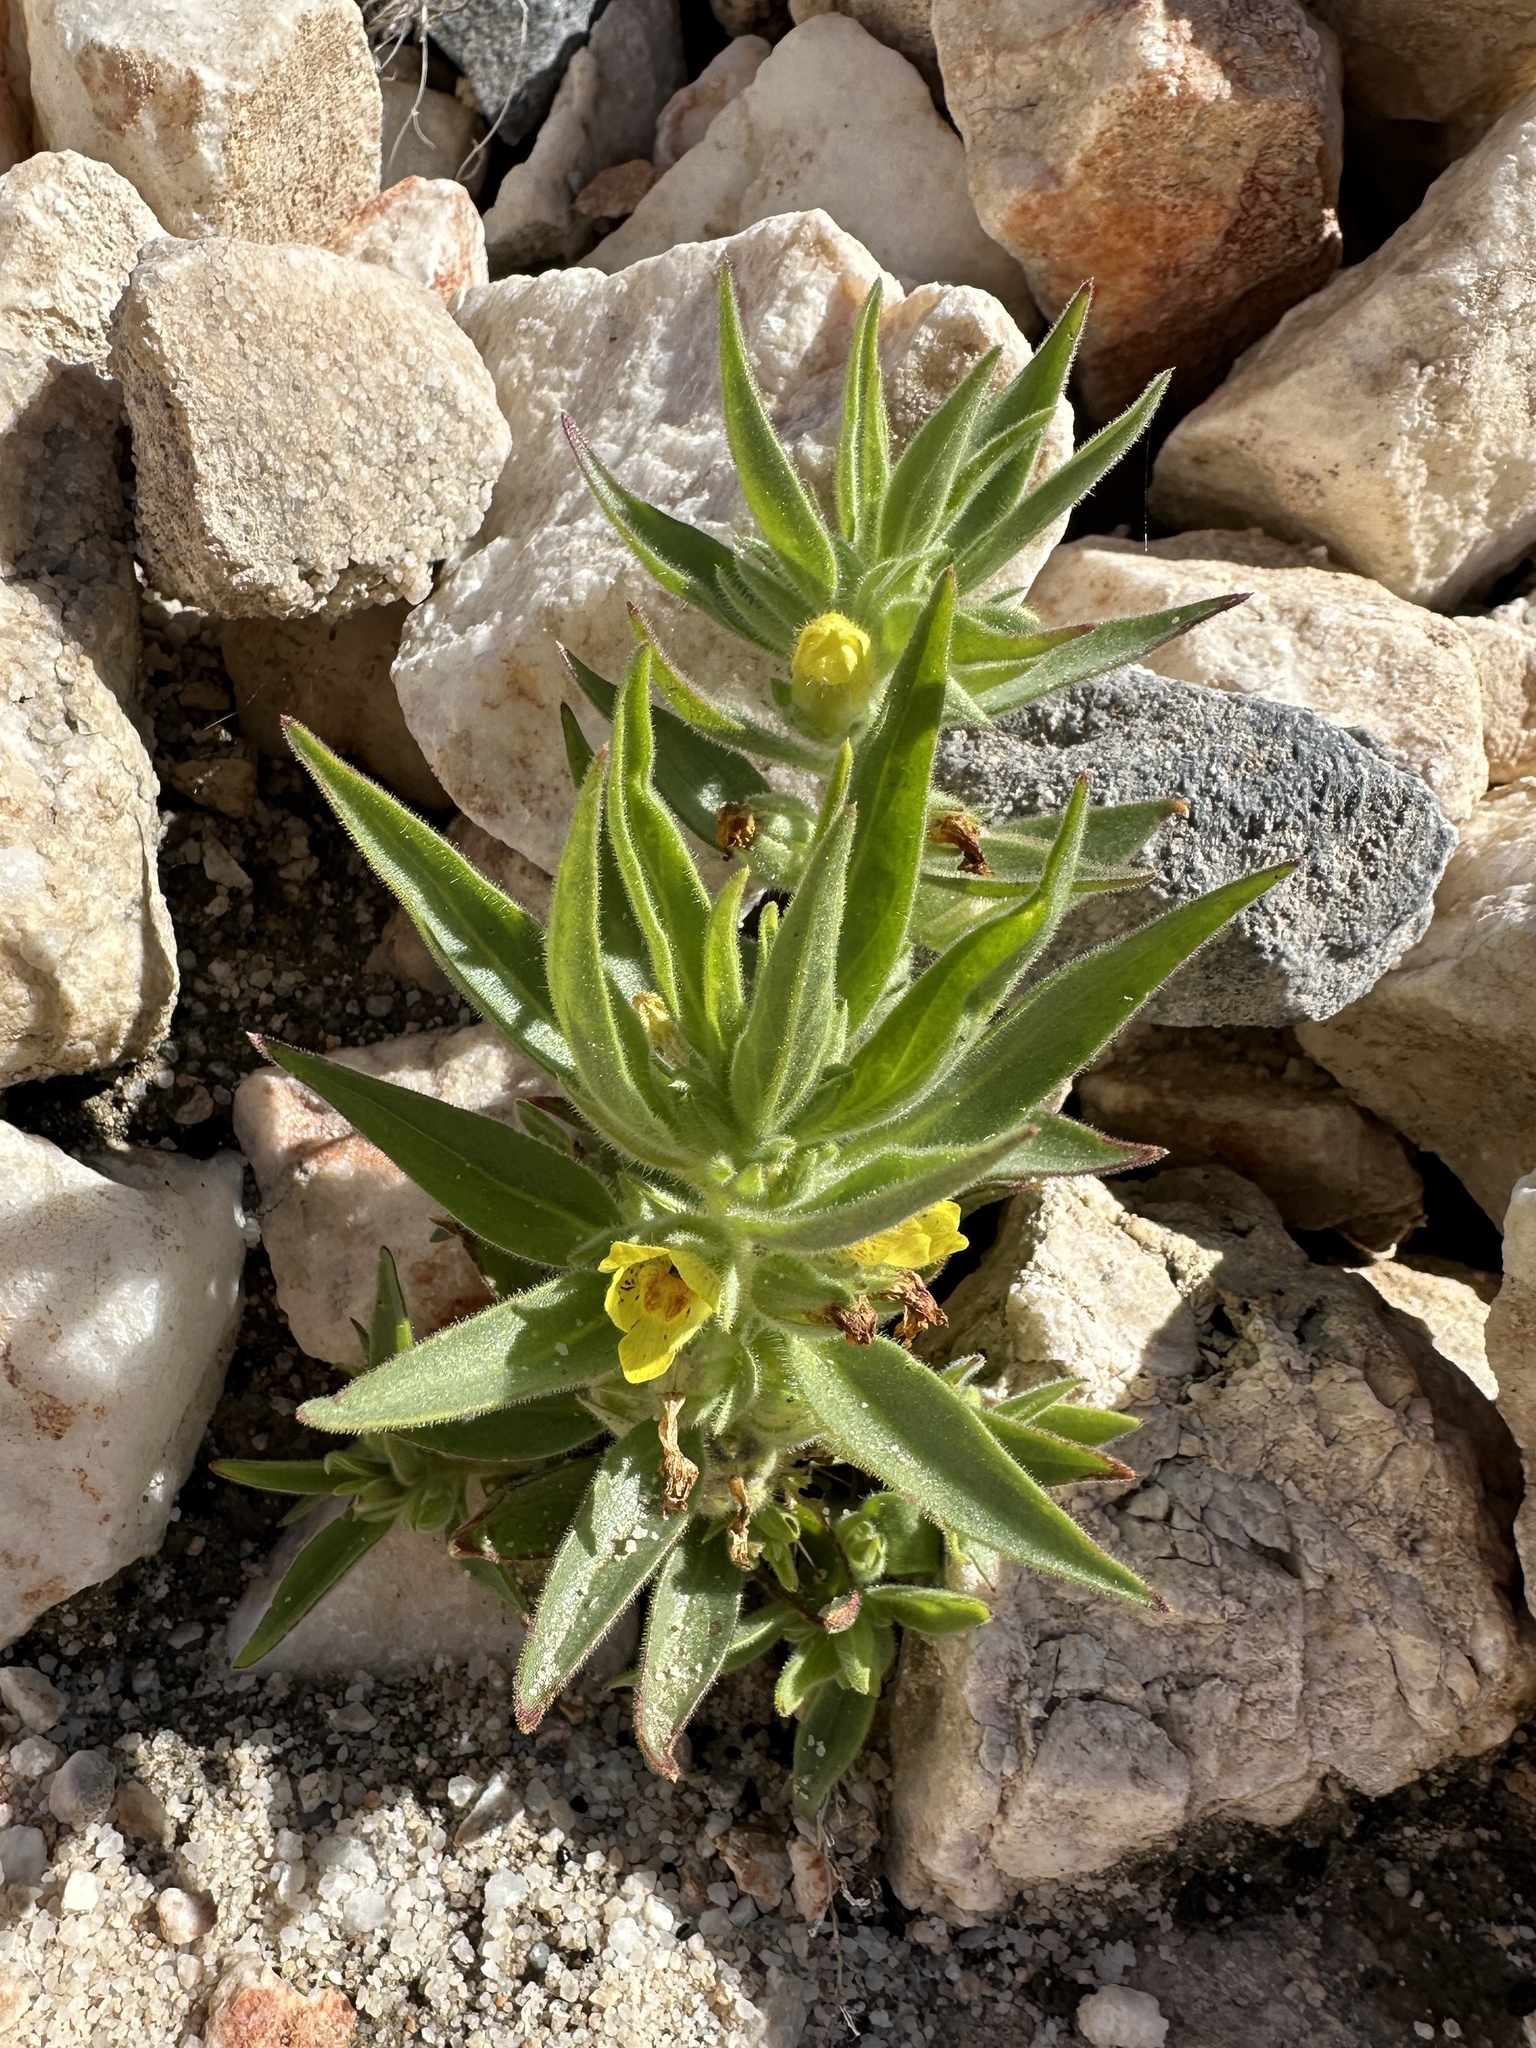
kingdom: Plantae
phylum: Tracheophyta
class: Magnoliopsida
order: Lamiales
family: Plantaginaceae
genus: Mohavea
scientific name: Mohavea breviflora
